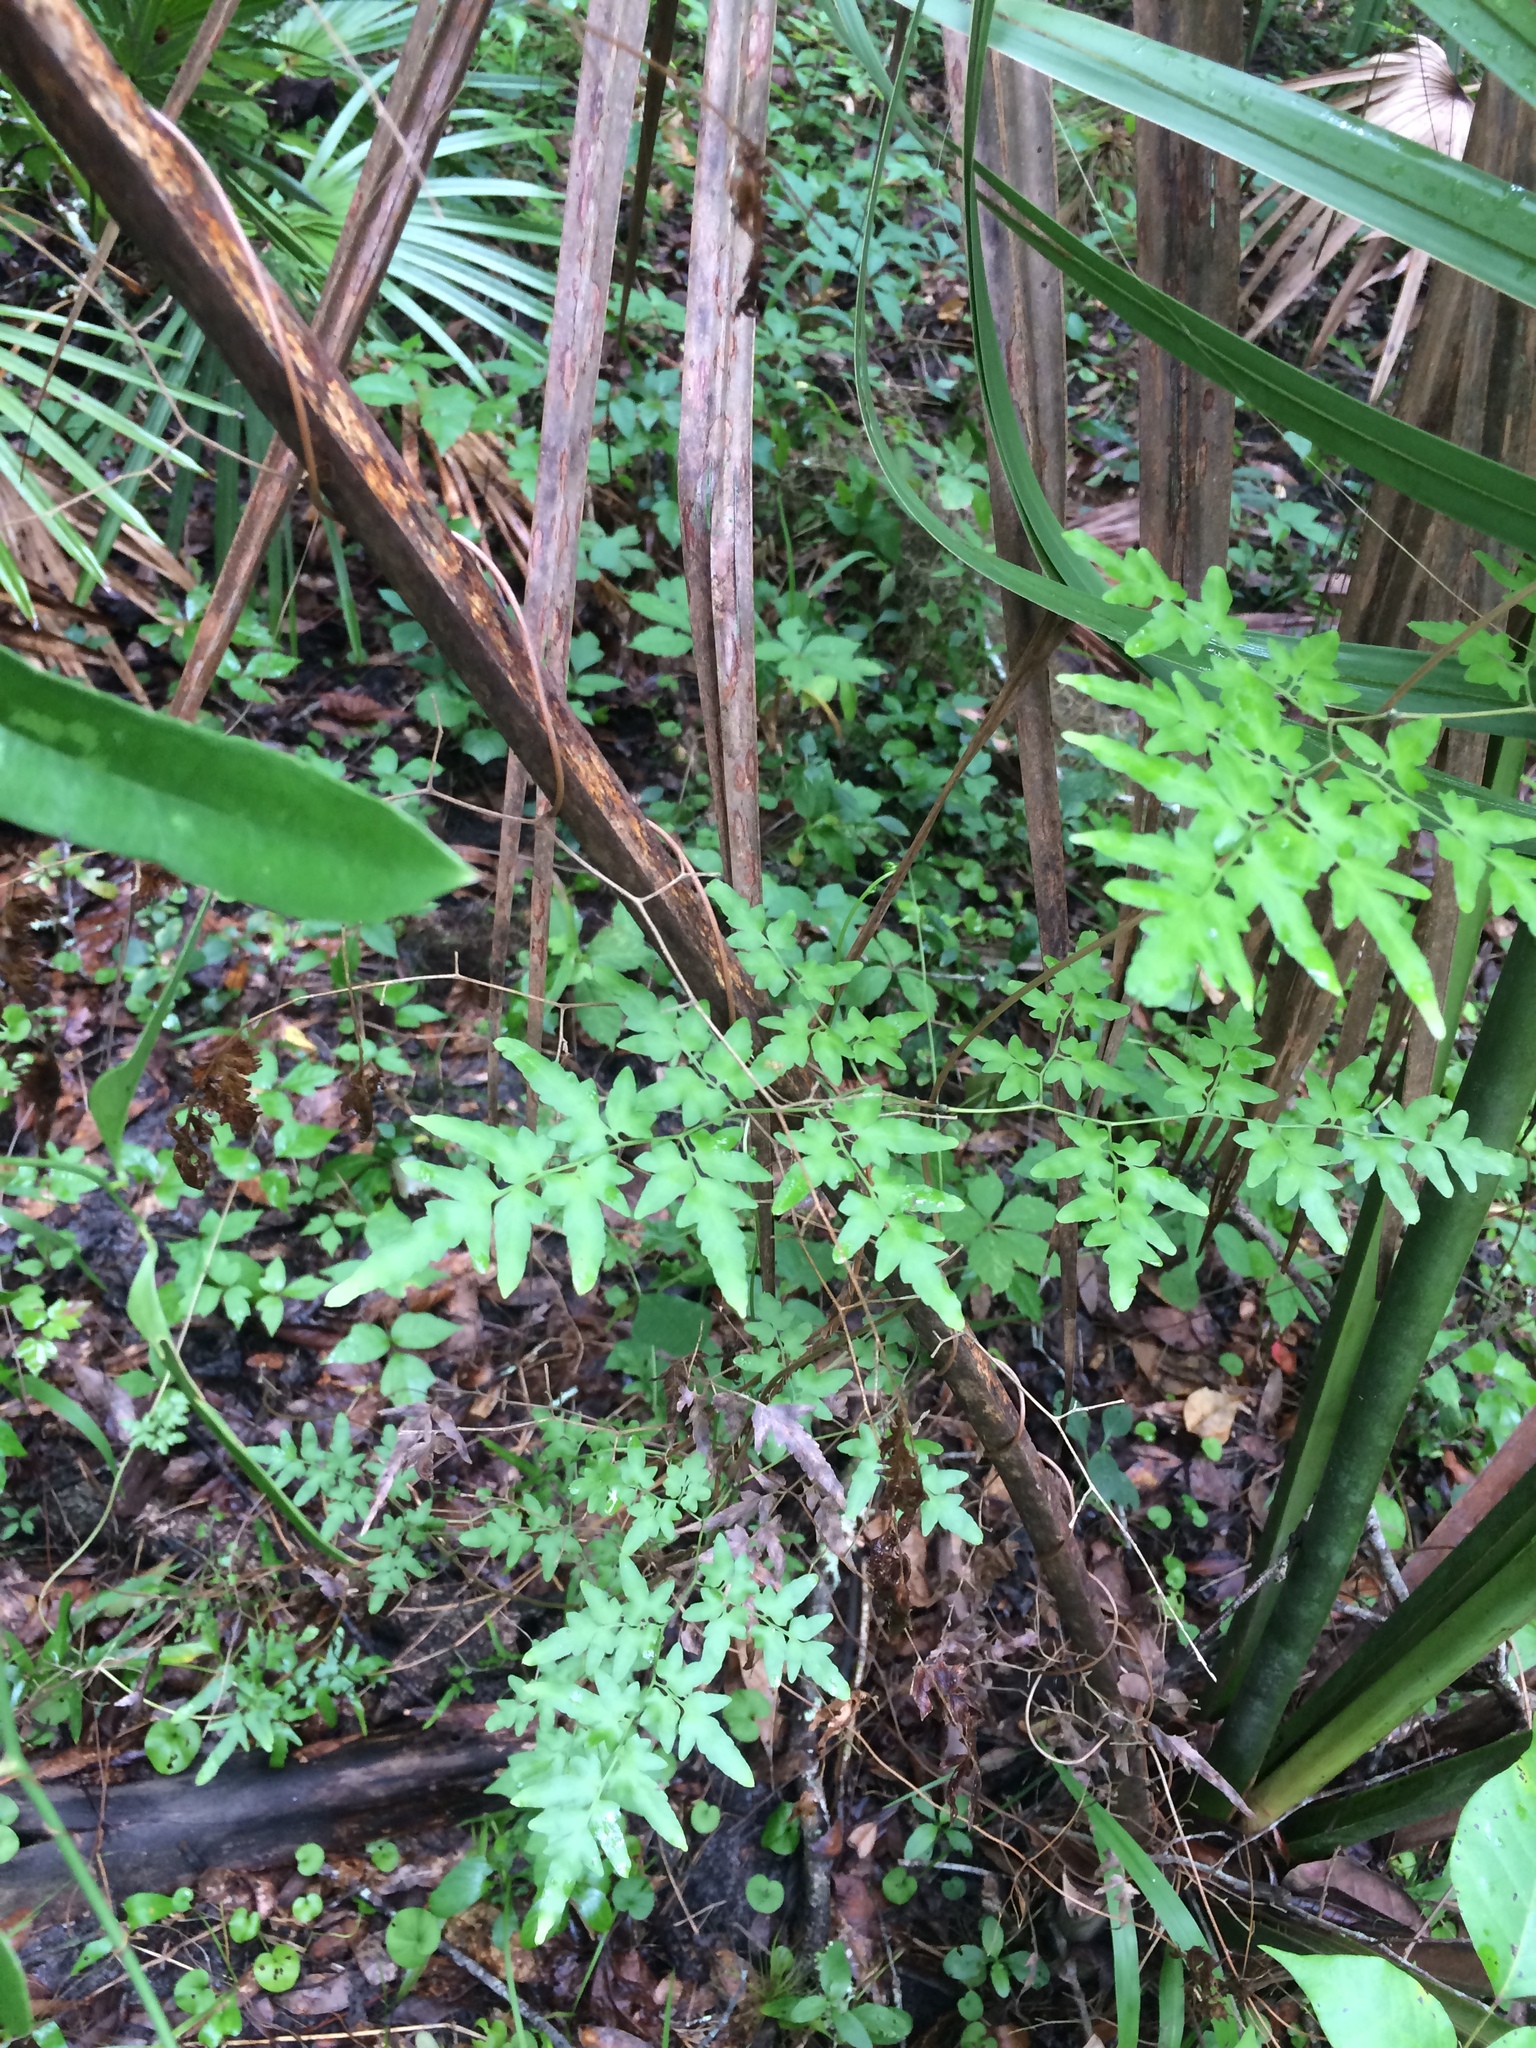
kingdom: Plantae
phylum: Tracheophyta
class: Polypodiopsida
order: Schizaeales
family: Lygodiaceae
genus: Lygodium
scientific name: Lygodium japonicum
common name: Japanese climbing fern
